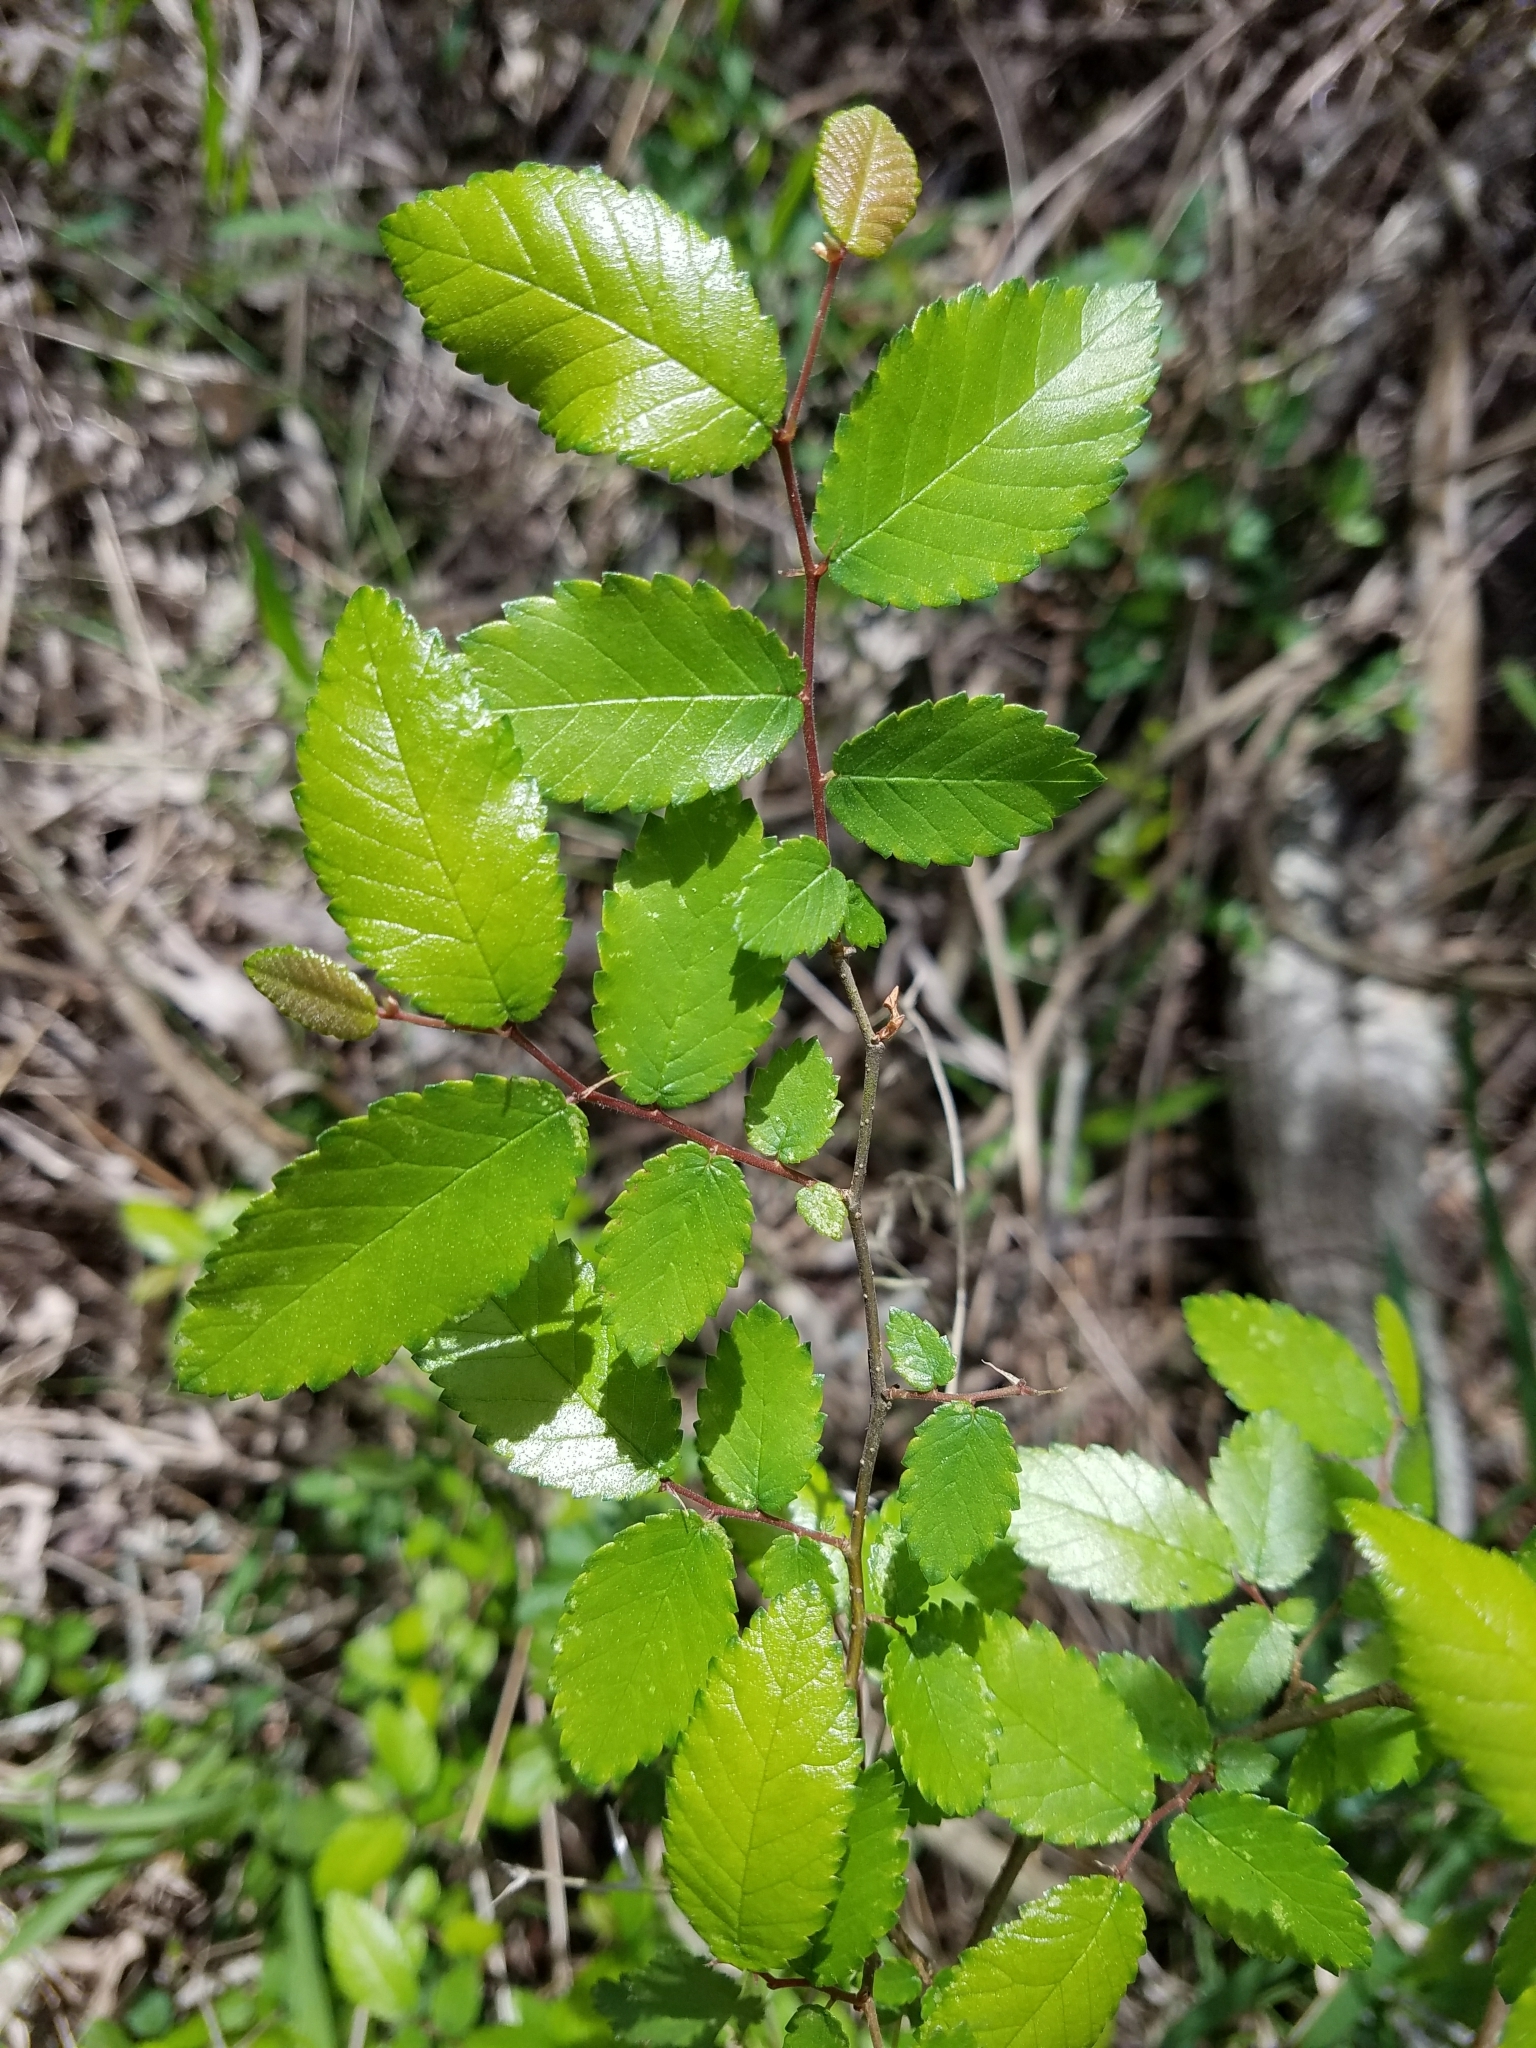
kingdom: Plantae
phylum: Tracheophyta
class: Magnoliopsida
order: Rosales
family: Ulmaceae
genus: Ulmus
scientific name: Ulmus crassifolia
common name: Basket elm
